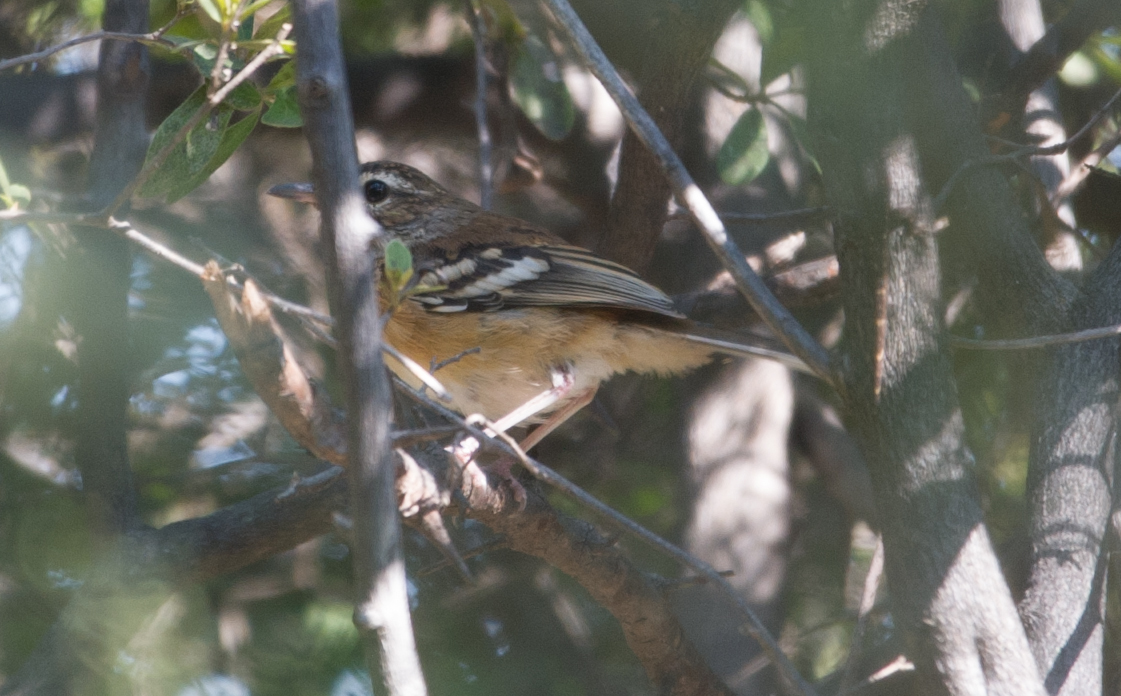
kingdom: Animalia
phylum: Chordata
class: Aves
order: Passeriformes
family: Muscicapidae
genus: Erythropygia
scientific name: Erythropygia leucophrys
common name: White-browed scrub robin
